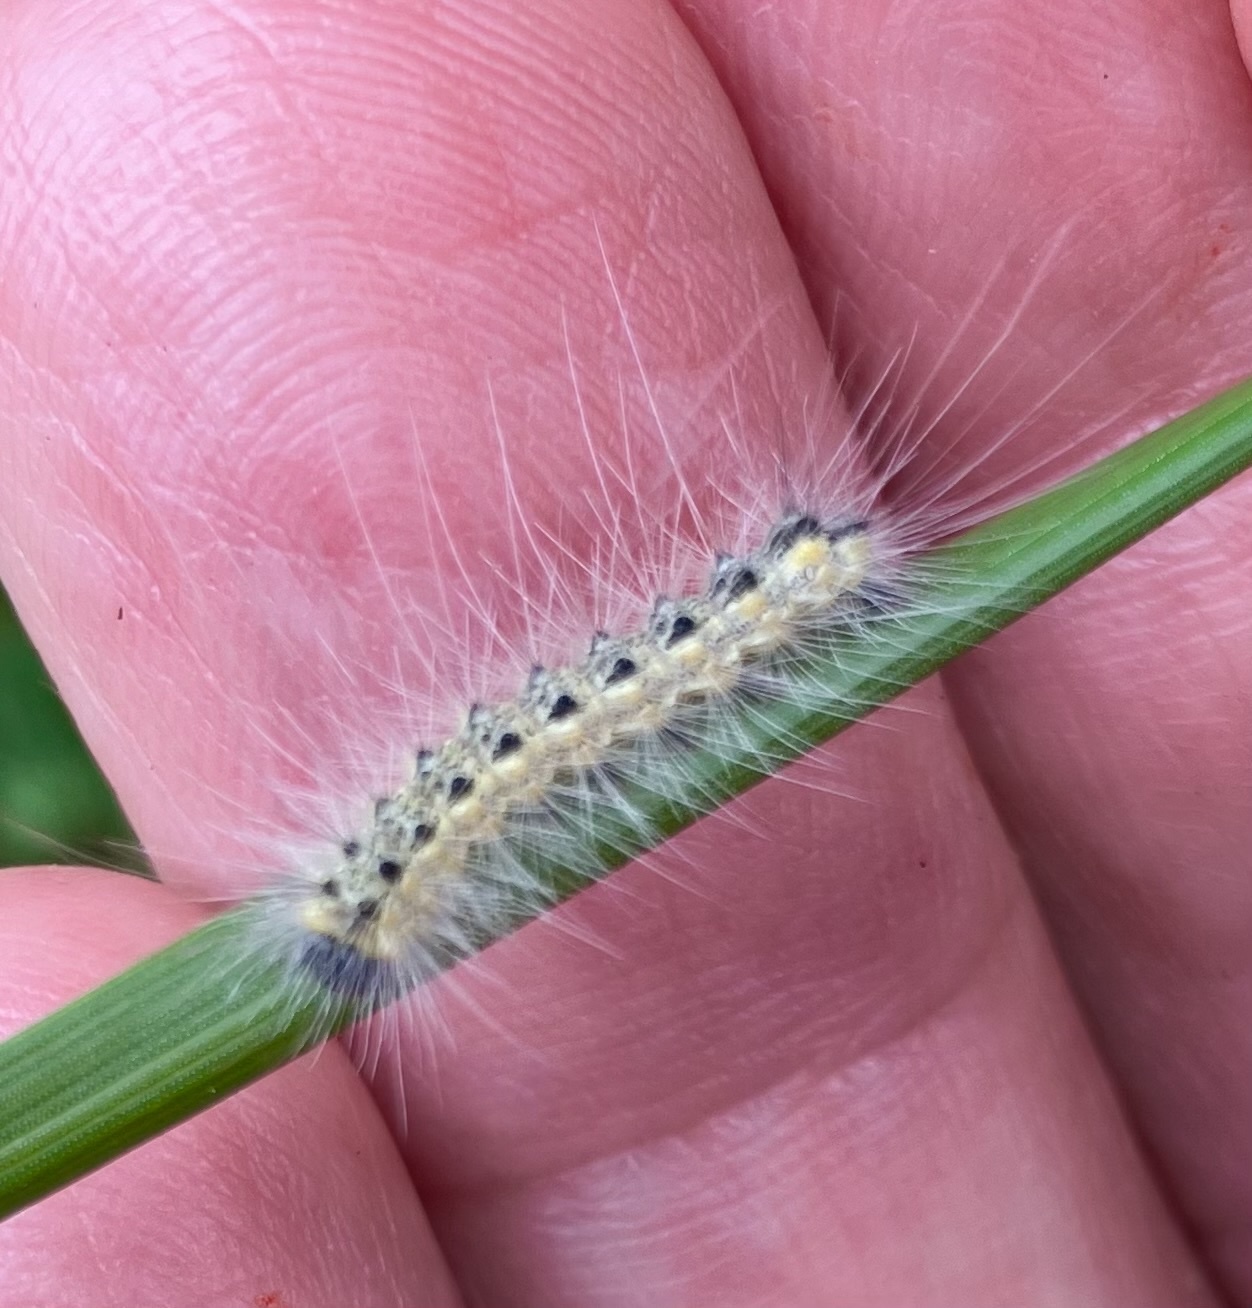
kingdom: Animalia
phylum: Arthropoda
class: Insecta
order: Lepidoptera
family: Erebidae
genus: Hyphantria
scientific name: Hyphantria cunea
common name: American white moth
